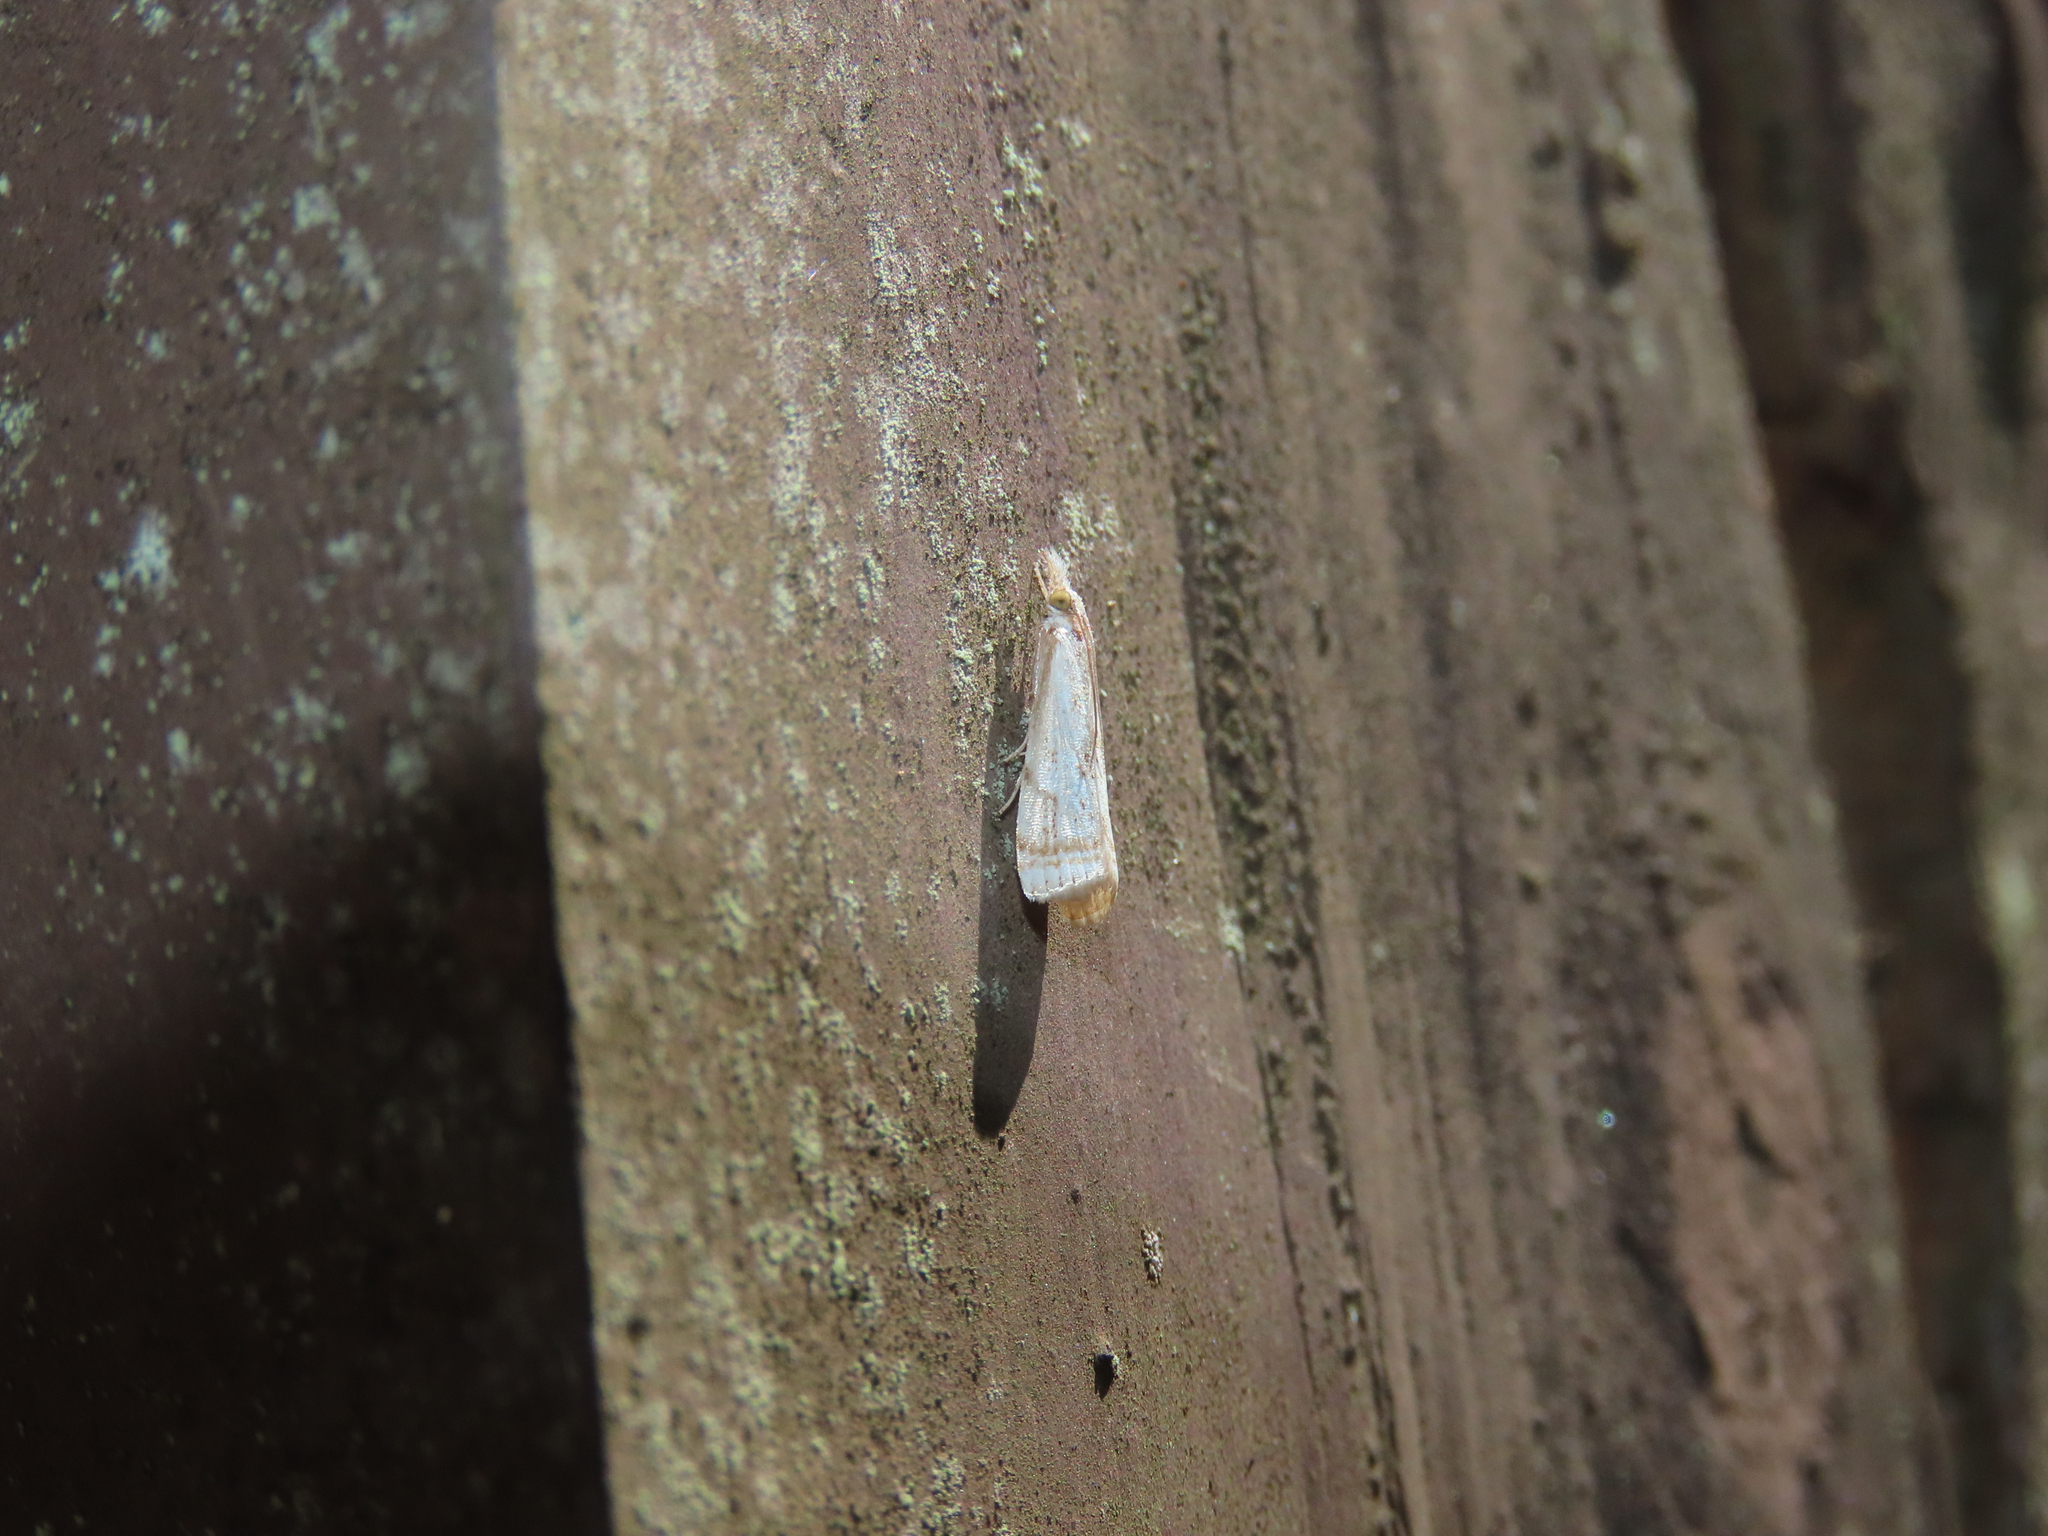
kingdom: Animalia
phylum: Arthropoda
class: Insecta
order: Lepidoptera
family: Crambidae
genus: Microcrambus
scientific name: Microcrambus elegans
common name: Elegant grass-veneer
